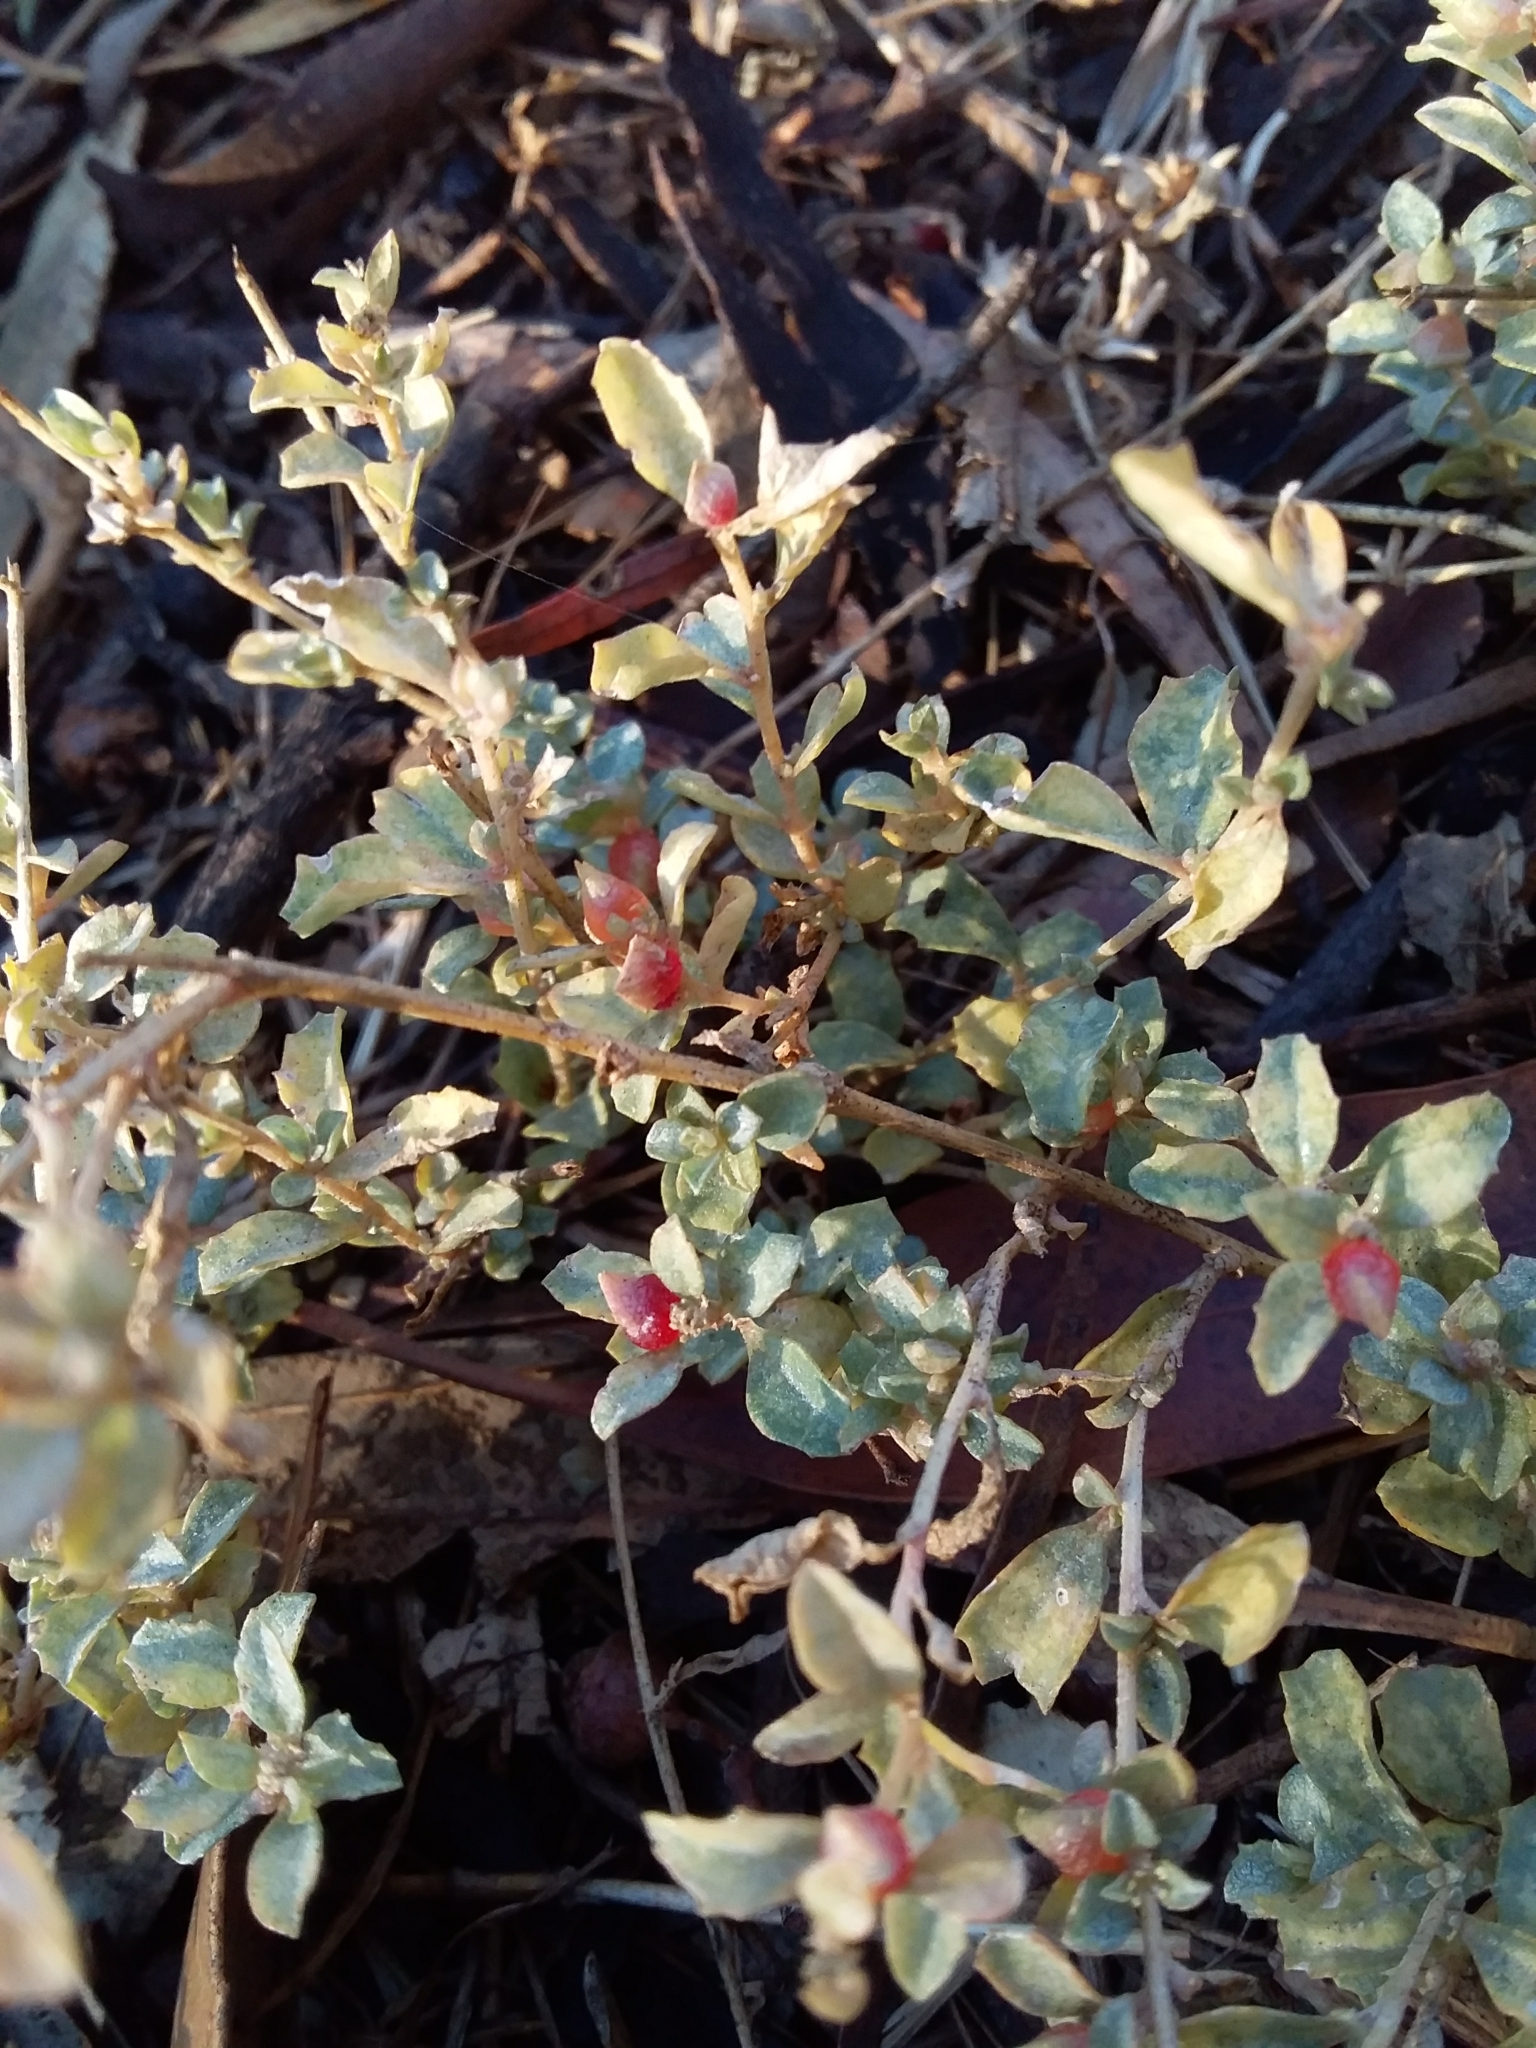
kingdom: Plantae
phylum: Tracheophyta
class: Magnoliopsida
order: Caryophyllales
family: Amaranthaceae
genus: Atriplex
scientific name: Atriplex semibaccata
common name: Australian saltbush
